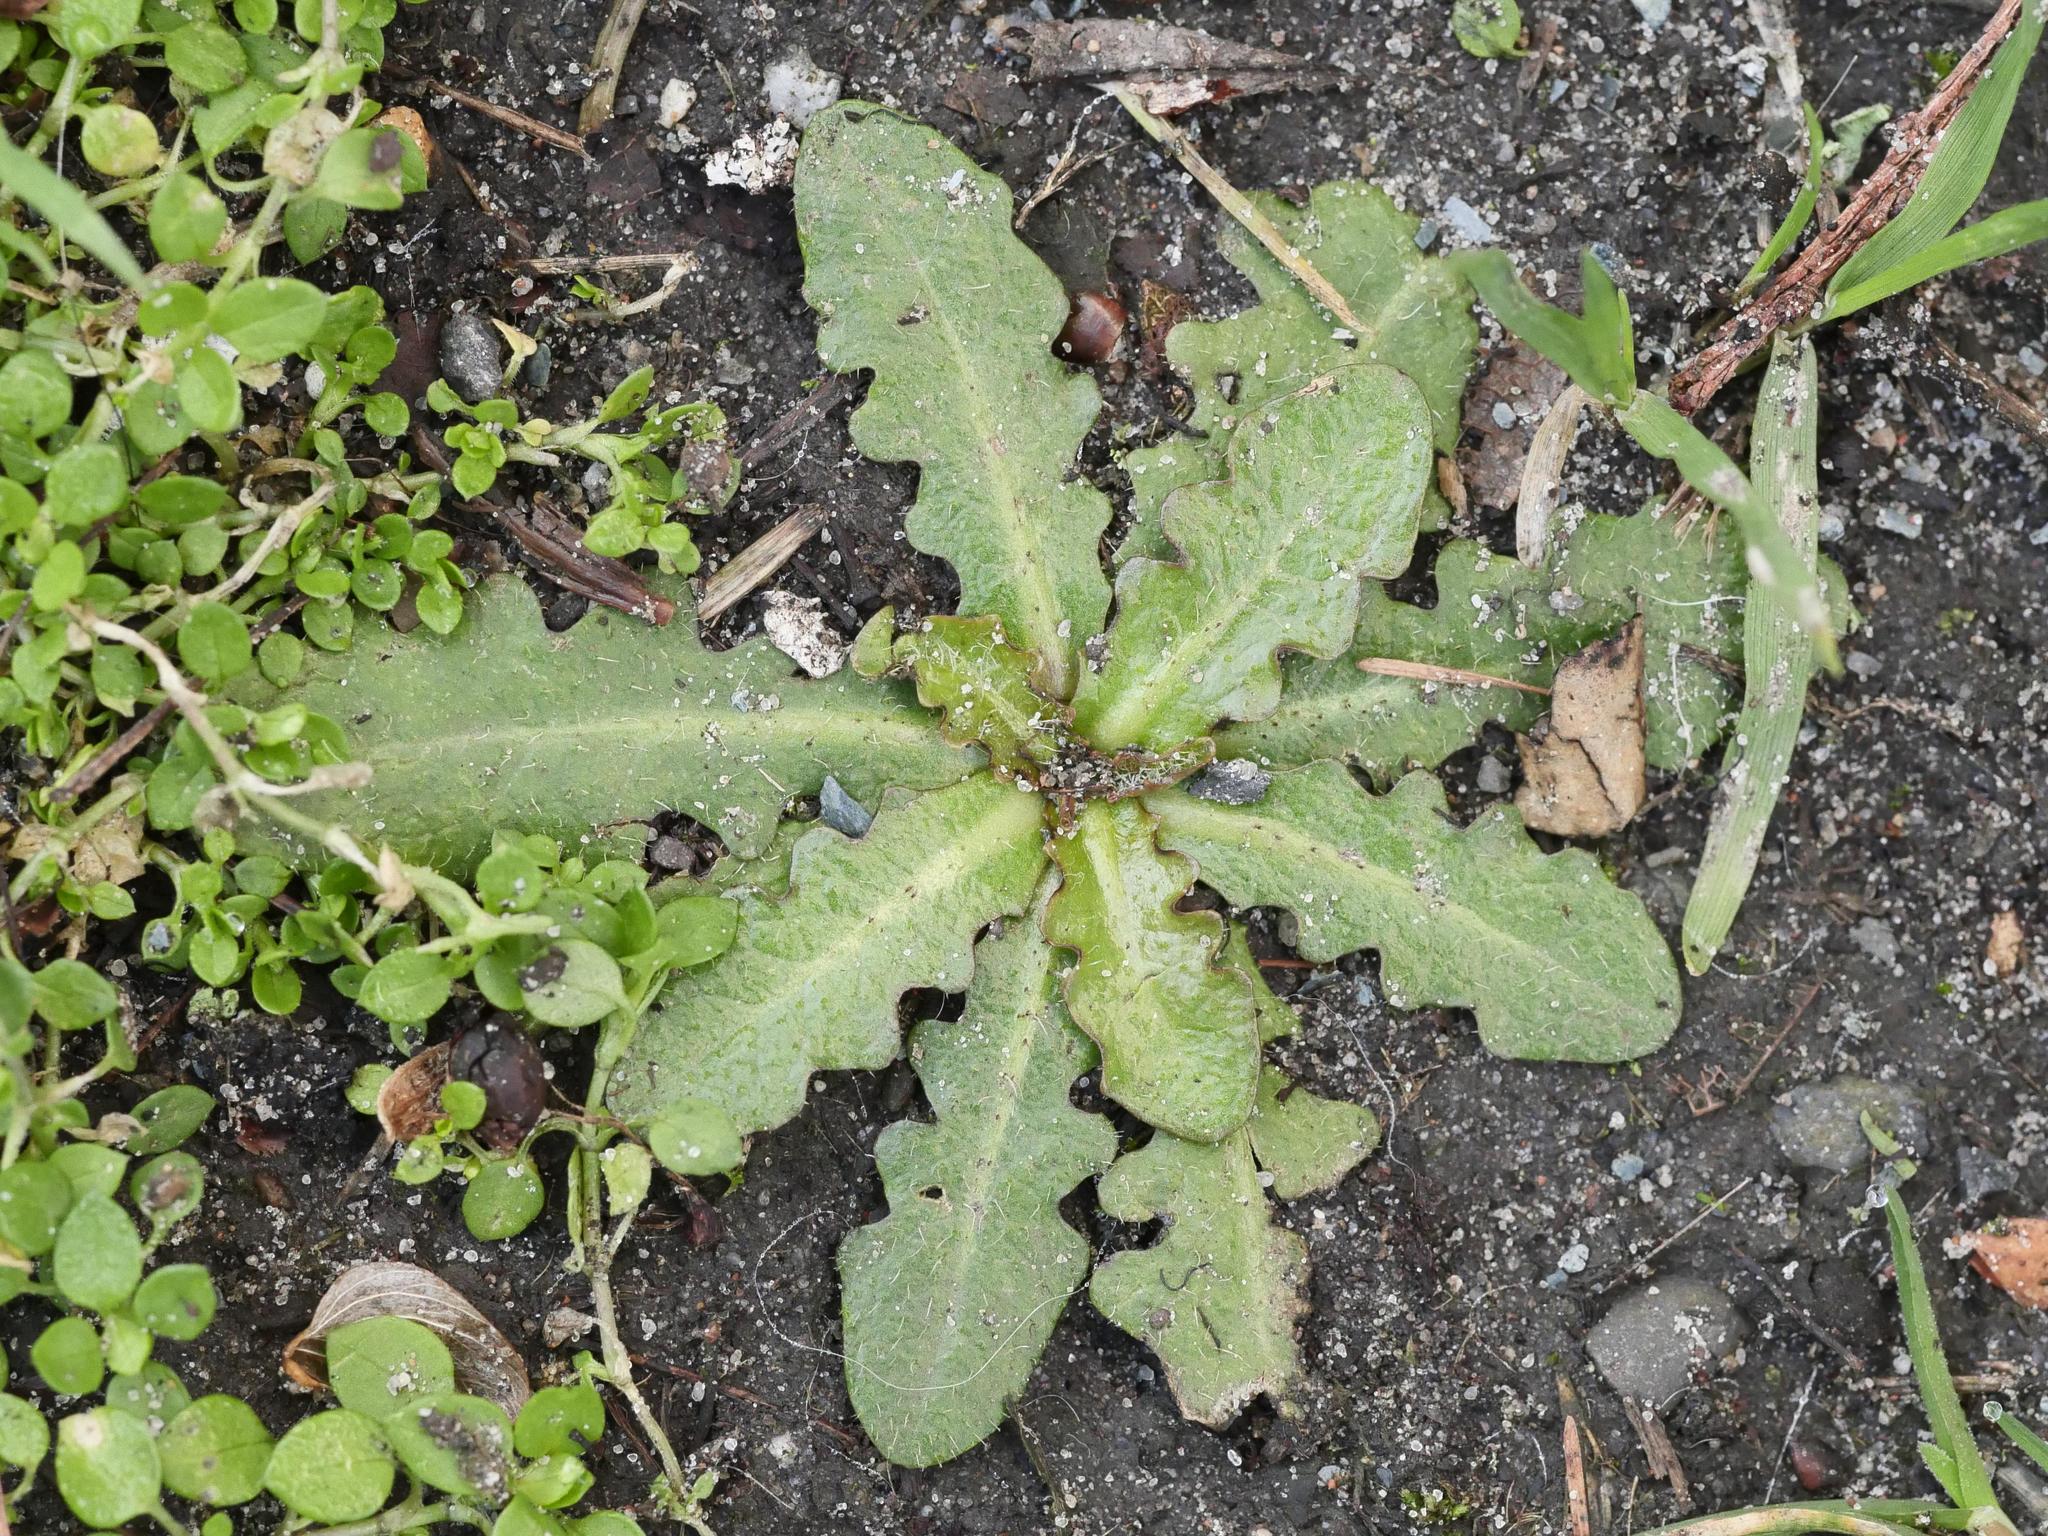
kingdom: Plantae
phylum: Tracheophyta
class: Magnoliopsida
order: Asterales
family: Asteraceae
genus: Hypochaeris
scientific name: Hypochaeris radicata
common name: Flatweed
